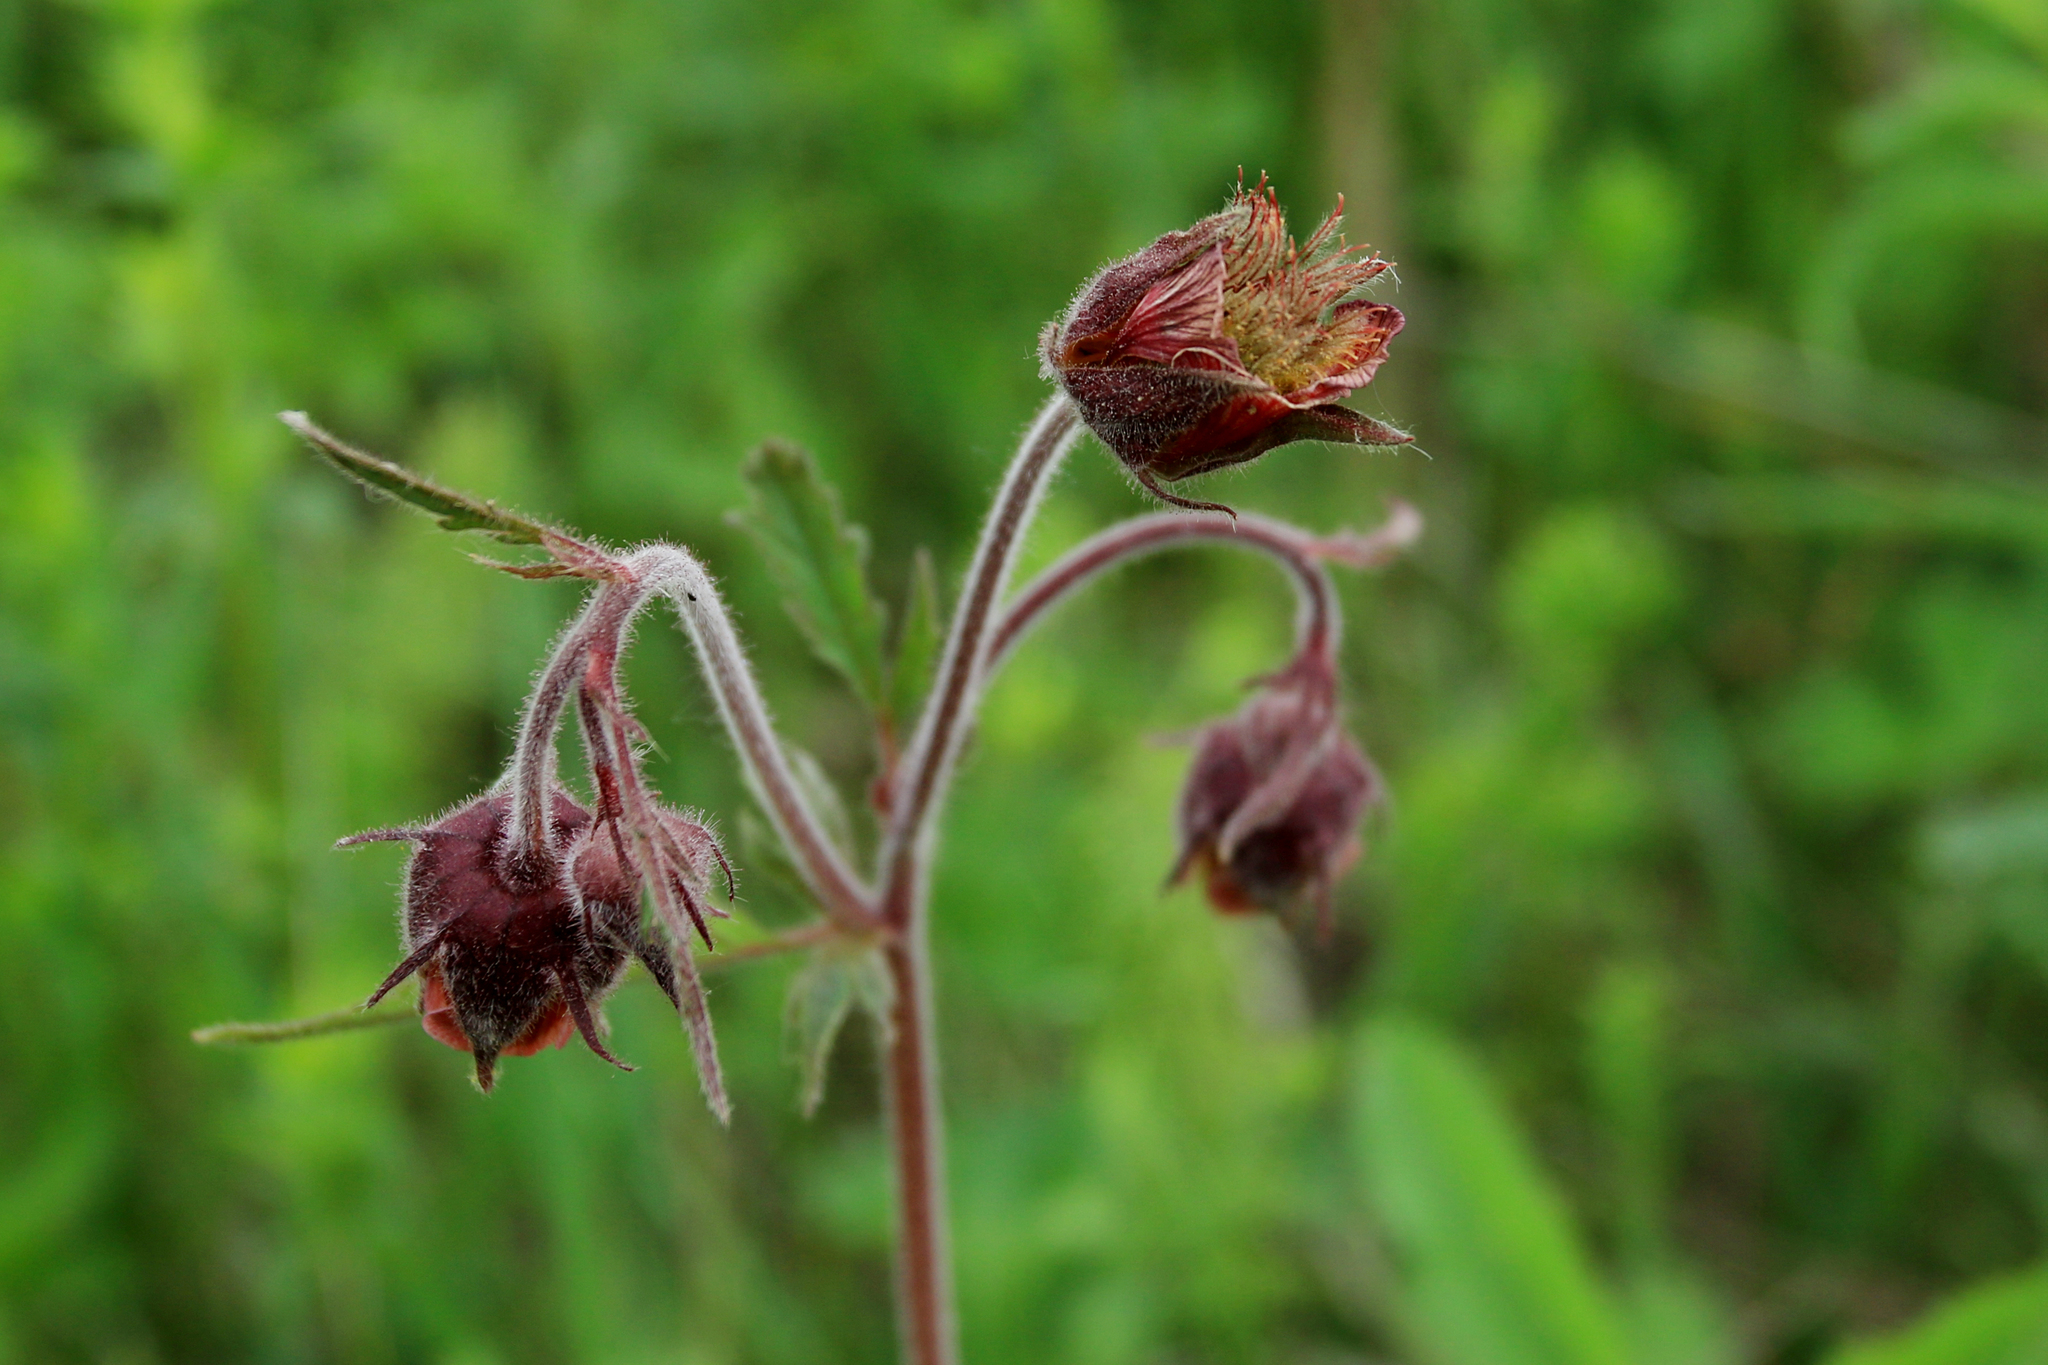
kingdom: Plantae
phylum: Tracheophyta
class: Magnoliopsida
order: Rosales
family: Rosaceae
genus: Geum
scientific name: Geum rivale
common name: Water avens
